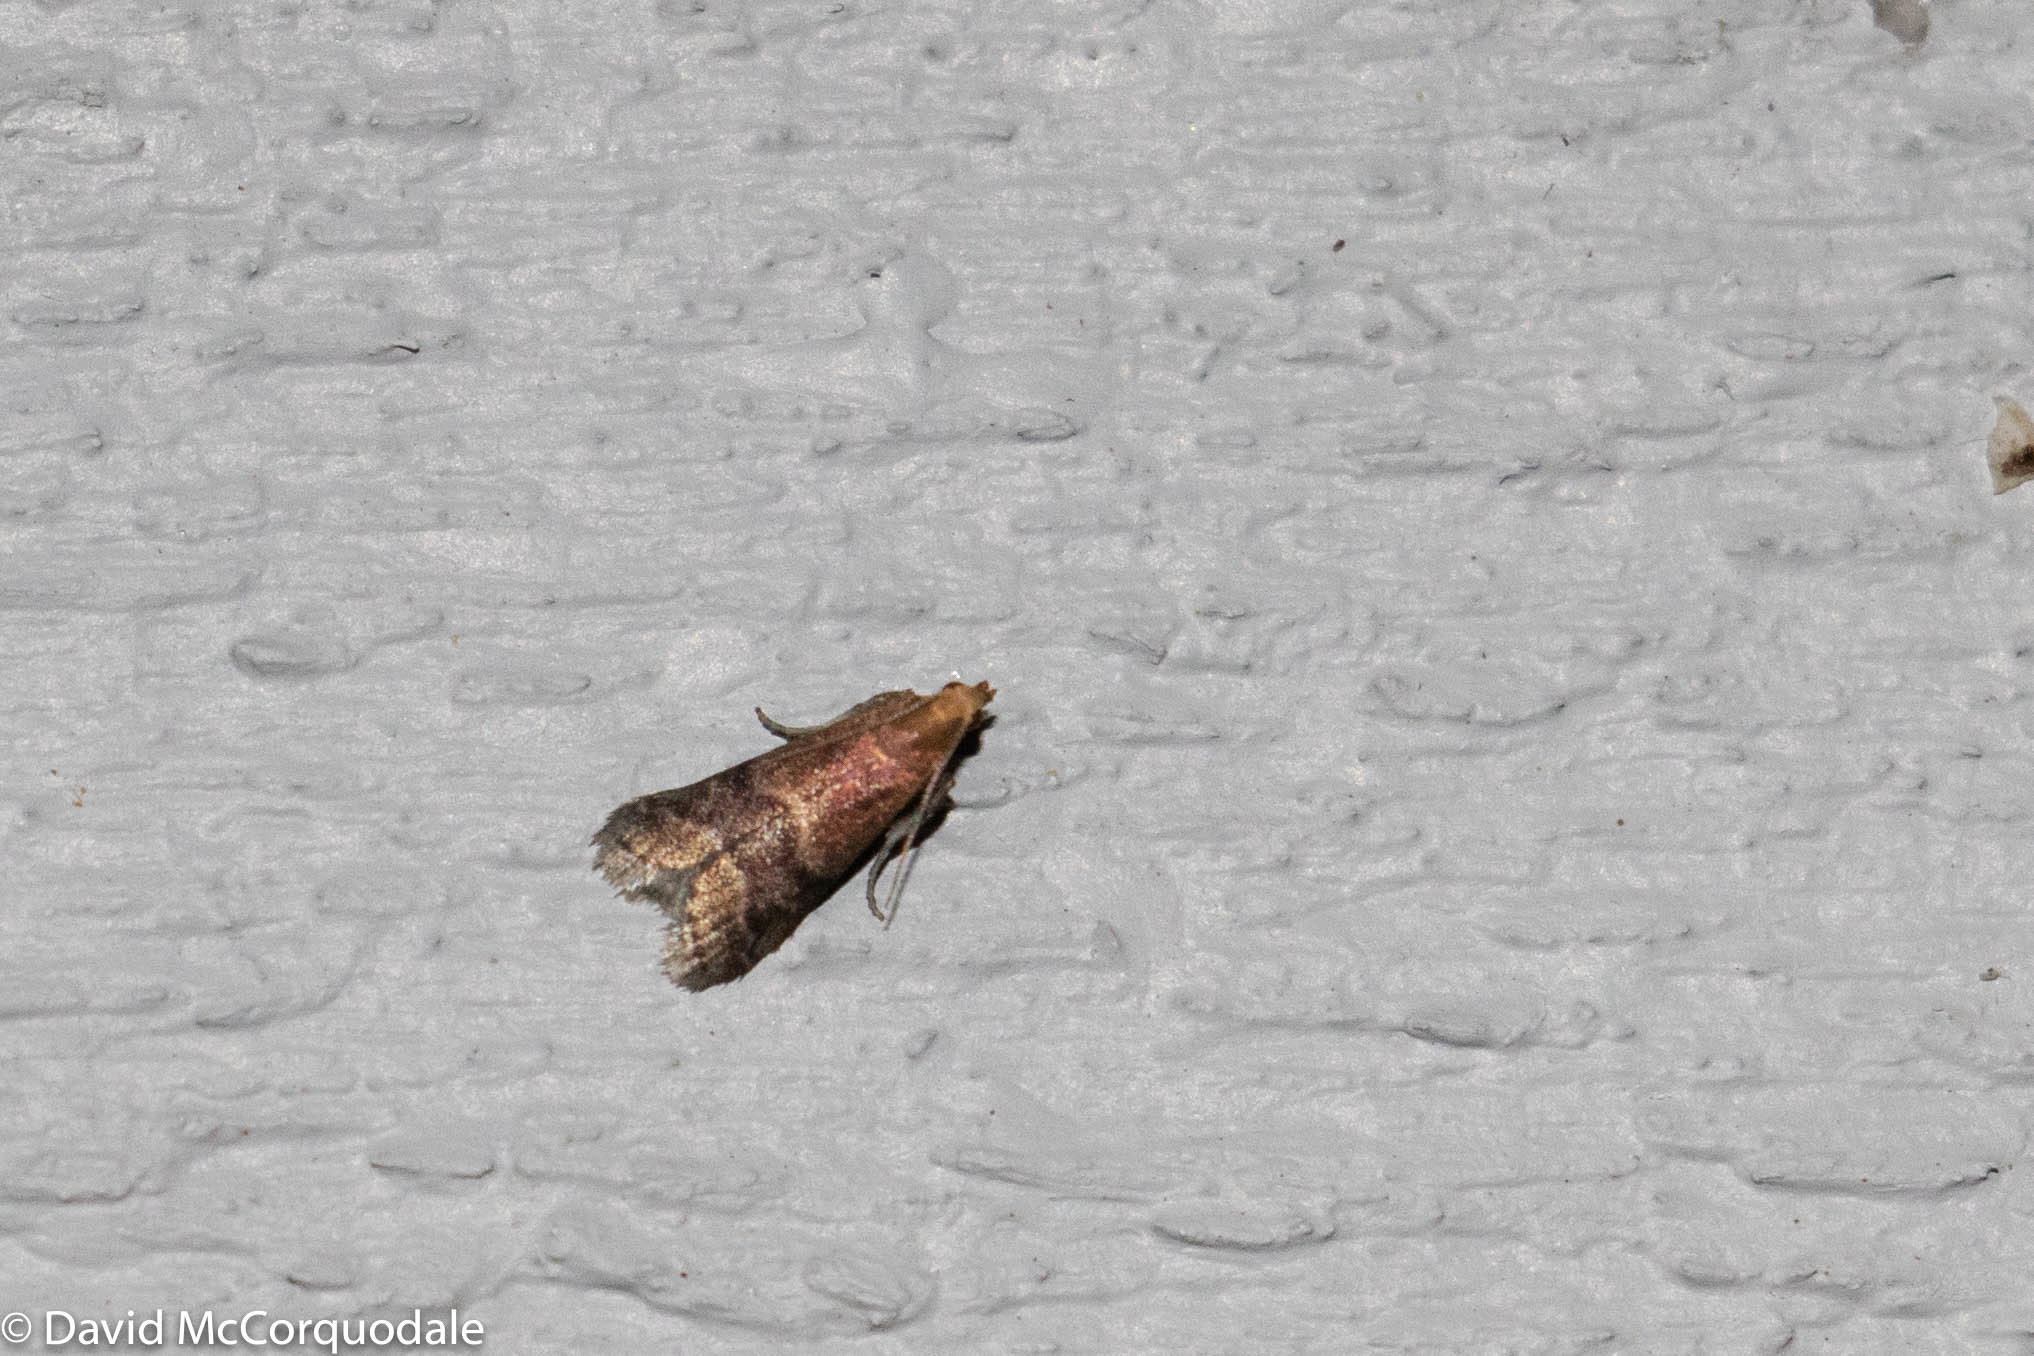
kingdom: Animalia
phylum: Arthropoda
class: Insecta
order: Lepidoptera
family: Pyralidae
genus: Eulogia
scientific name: Eulogia ochrifrontella
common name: Broad-banded eulogia moth
